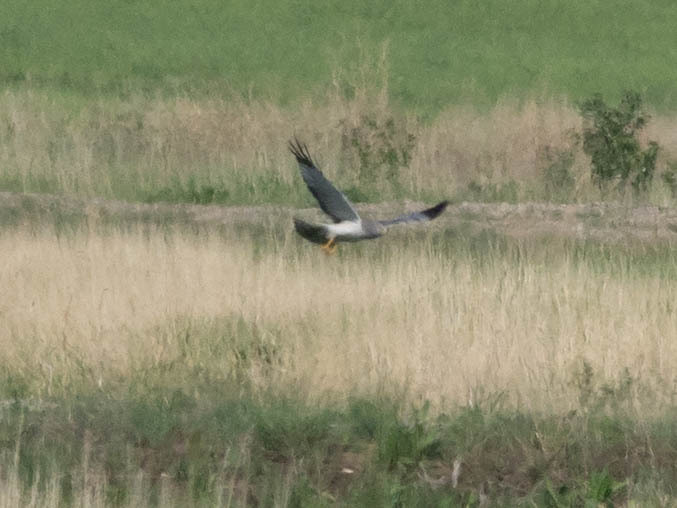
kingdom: Animalia
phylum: Chordata
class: Aves
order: Accipitriformes
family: Accipitridae
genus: Circus
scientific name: Circus cyaneus
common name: Hen harrier
